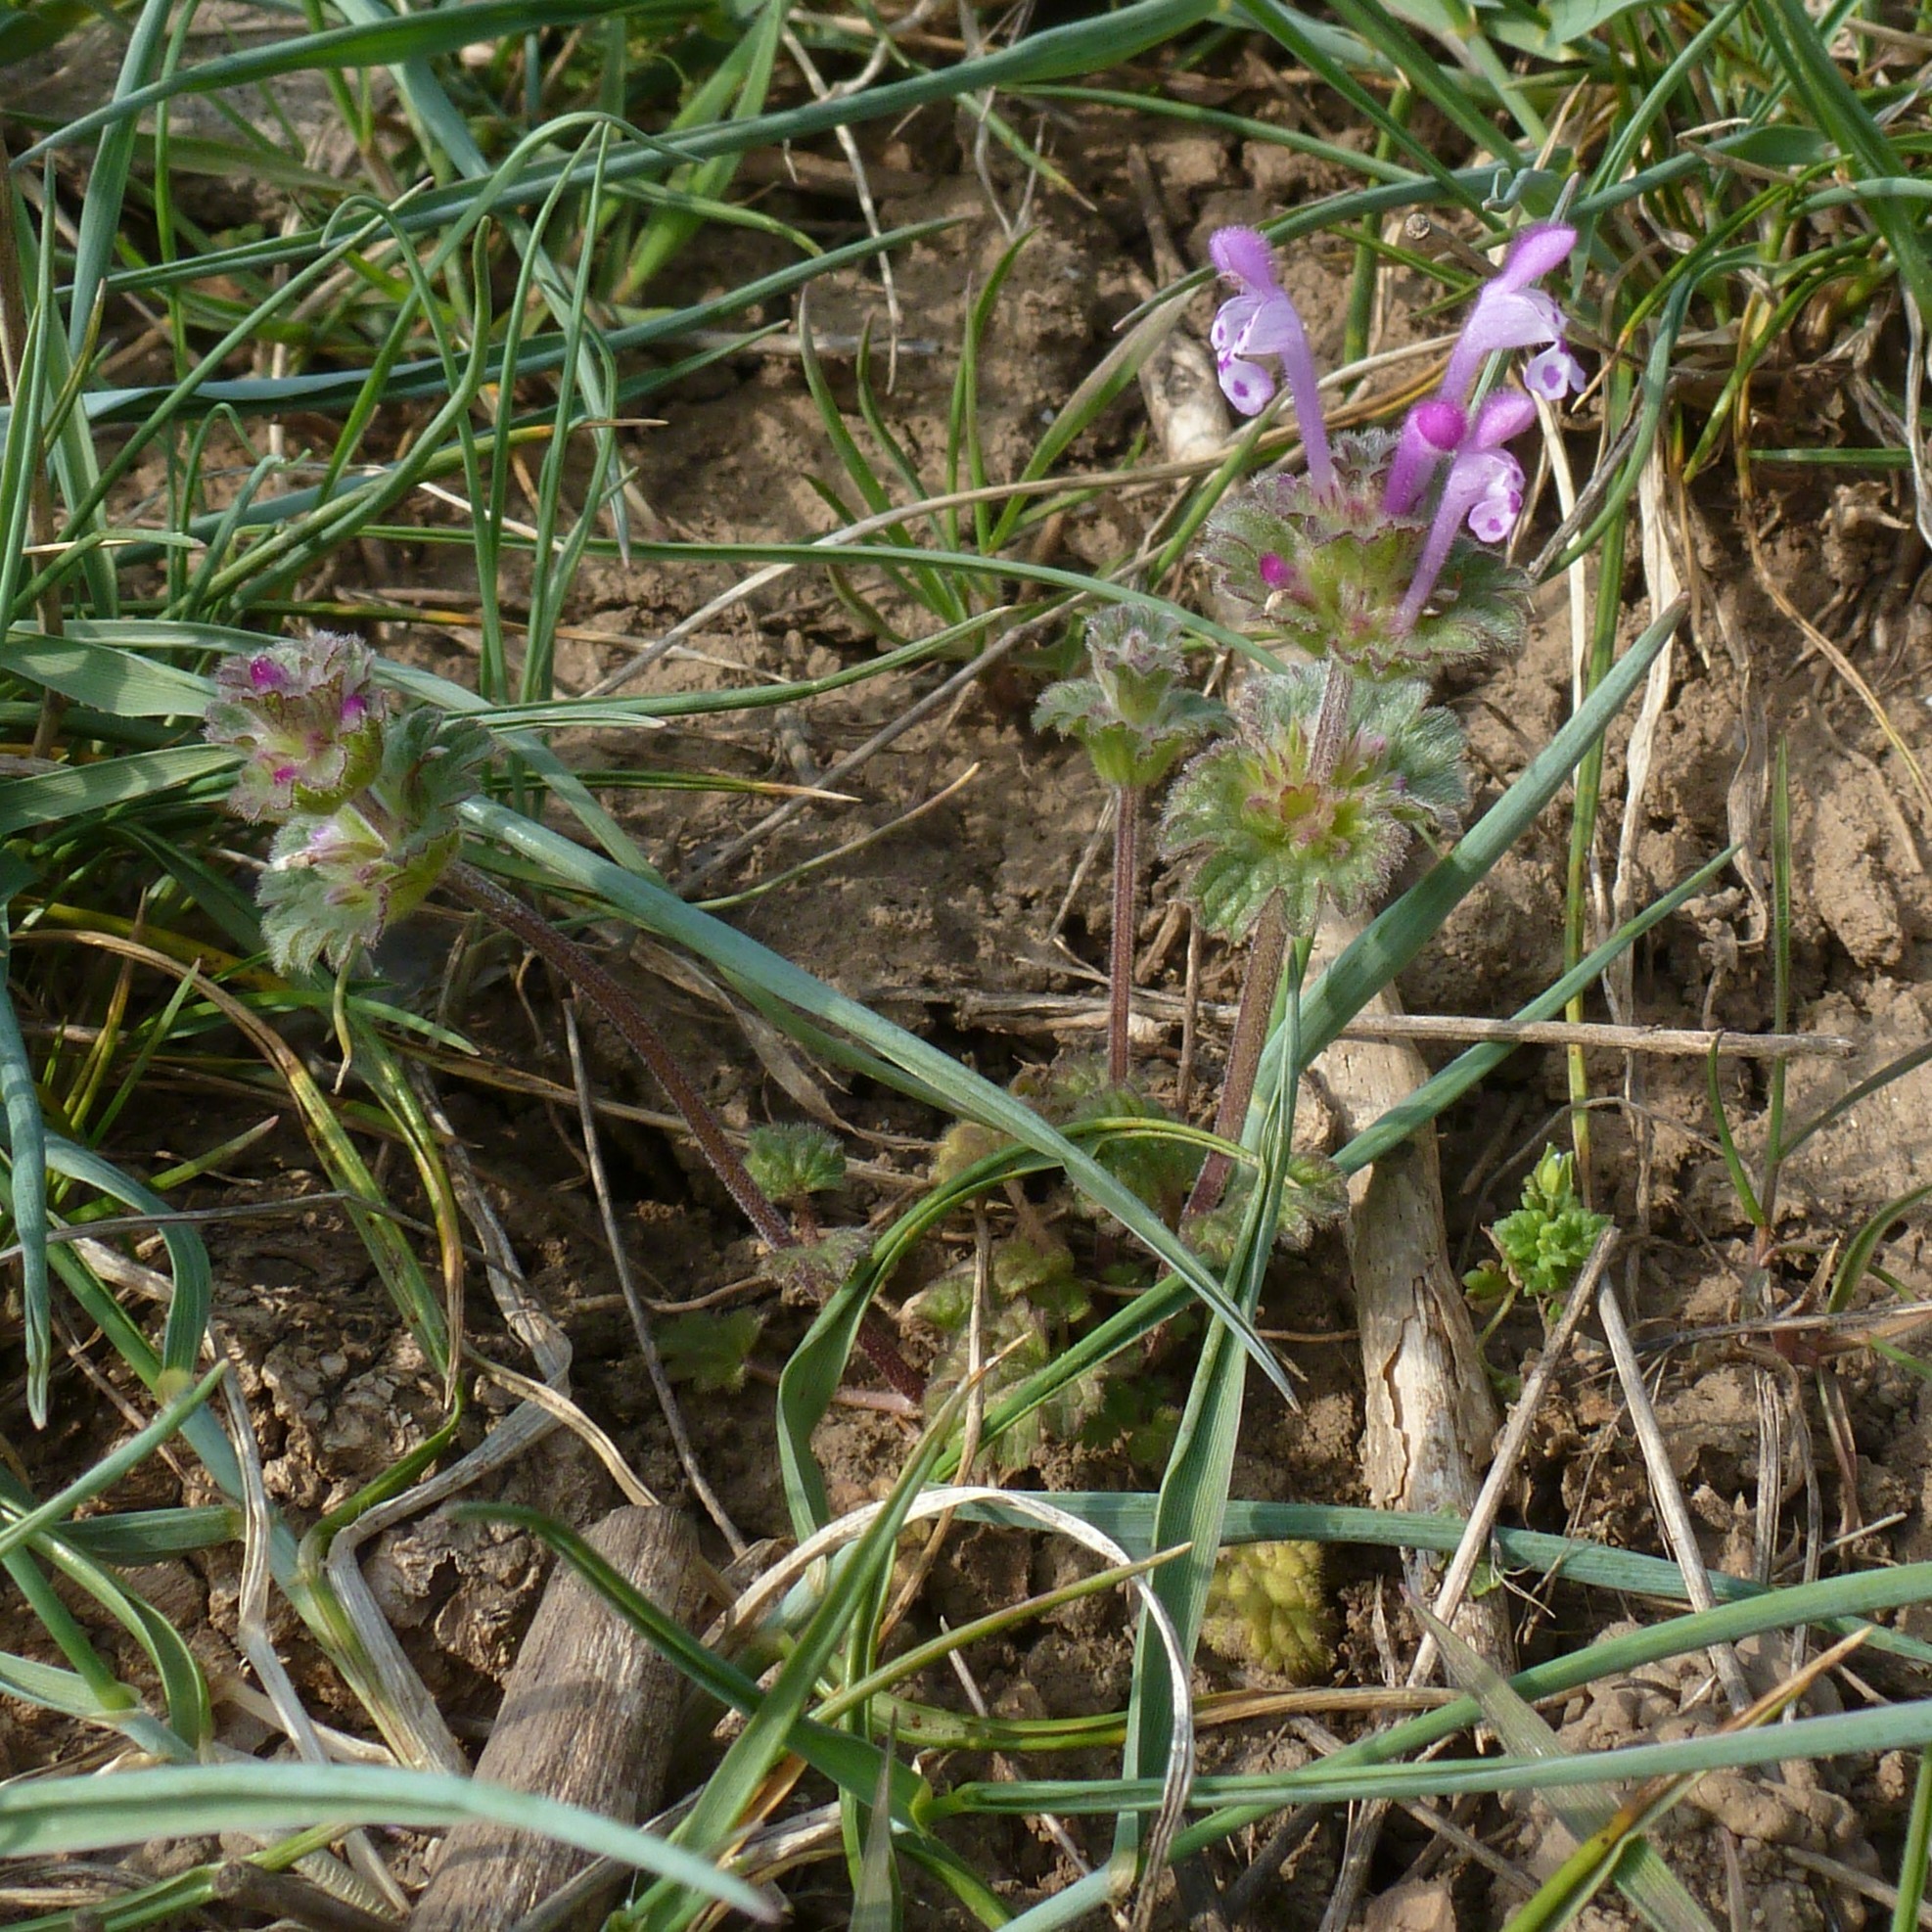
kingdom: Plantae
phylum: Tracheophyta
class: Magnoliopsida
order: Lamiales
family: Lamiaceae
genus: Lamium
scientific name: Lamium amplexicaule
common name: Henbit dead-nettle
